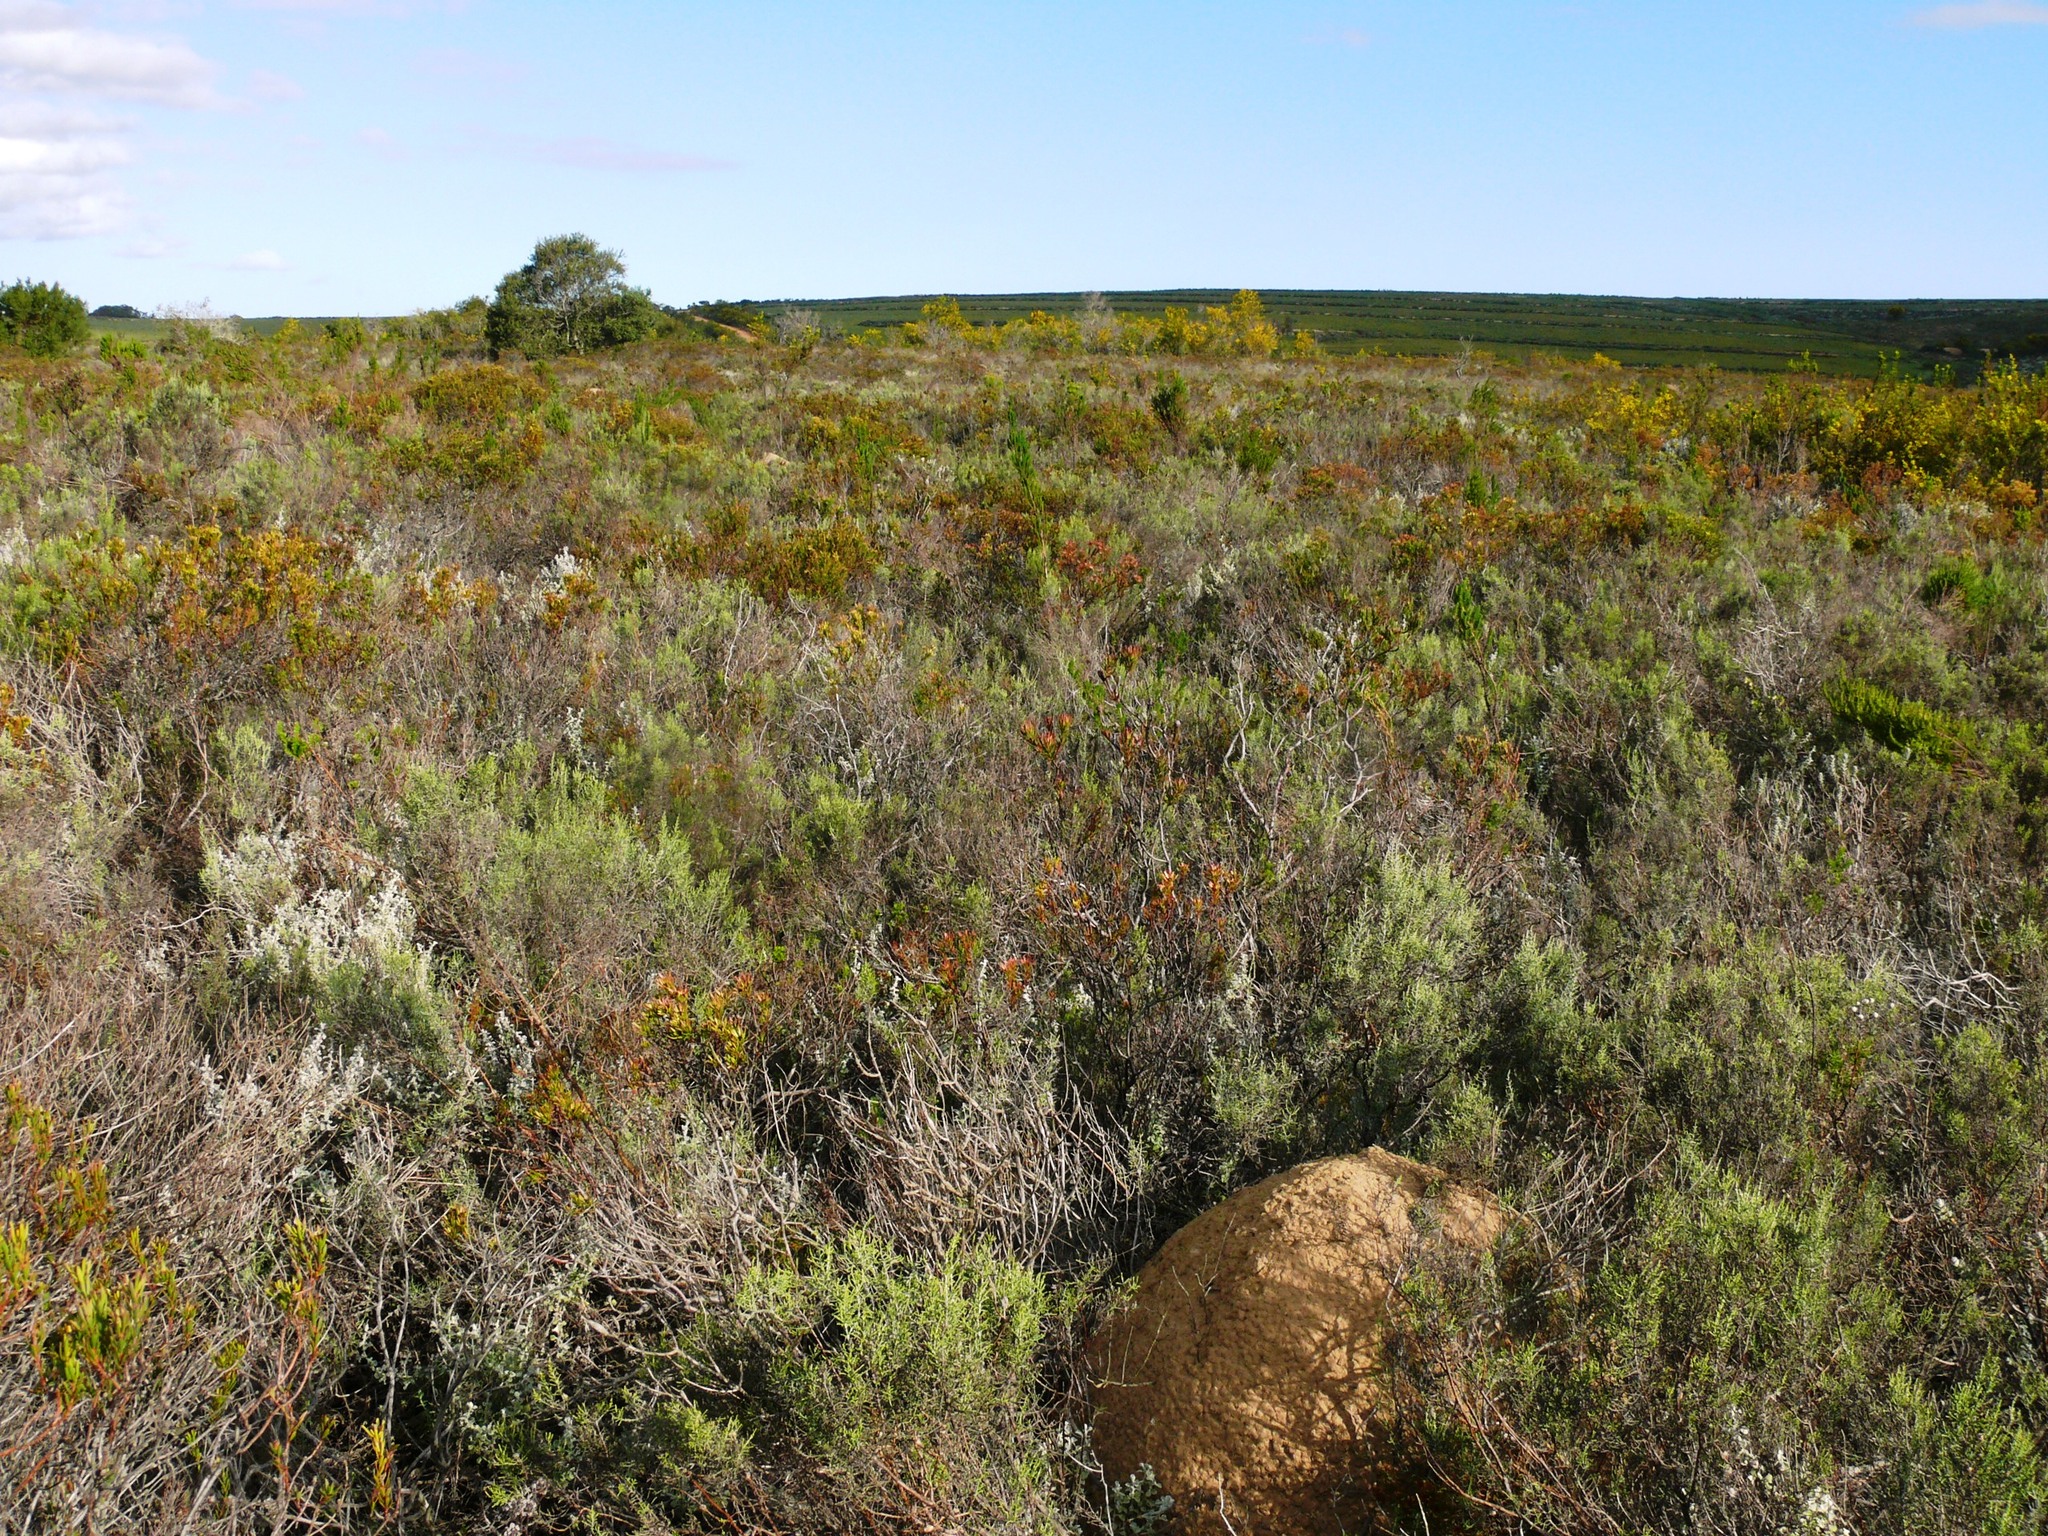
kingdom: Plantae
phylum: Tracheophyta
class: Magnoliopsida
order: Asterales
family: Asteraceae
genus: Dicerothamnus
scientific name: Dicerothamnus rhinocerotis
